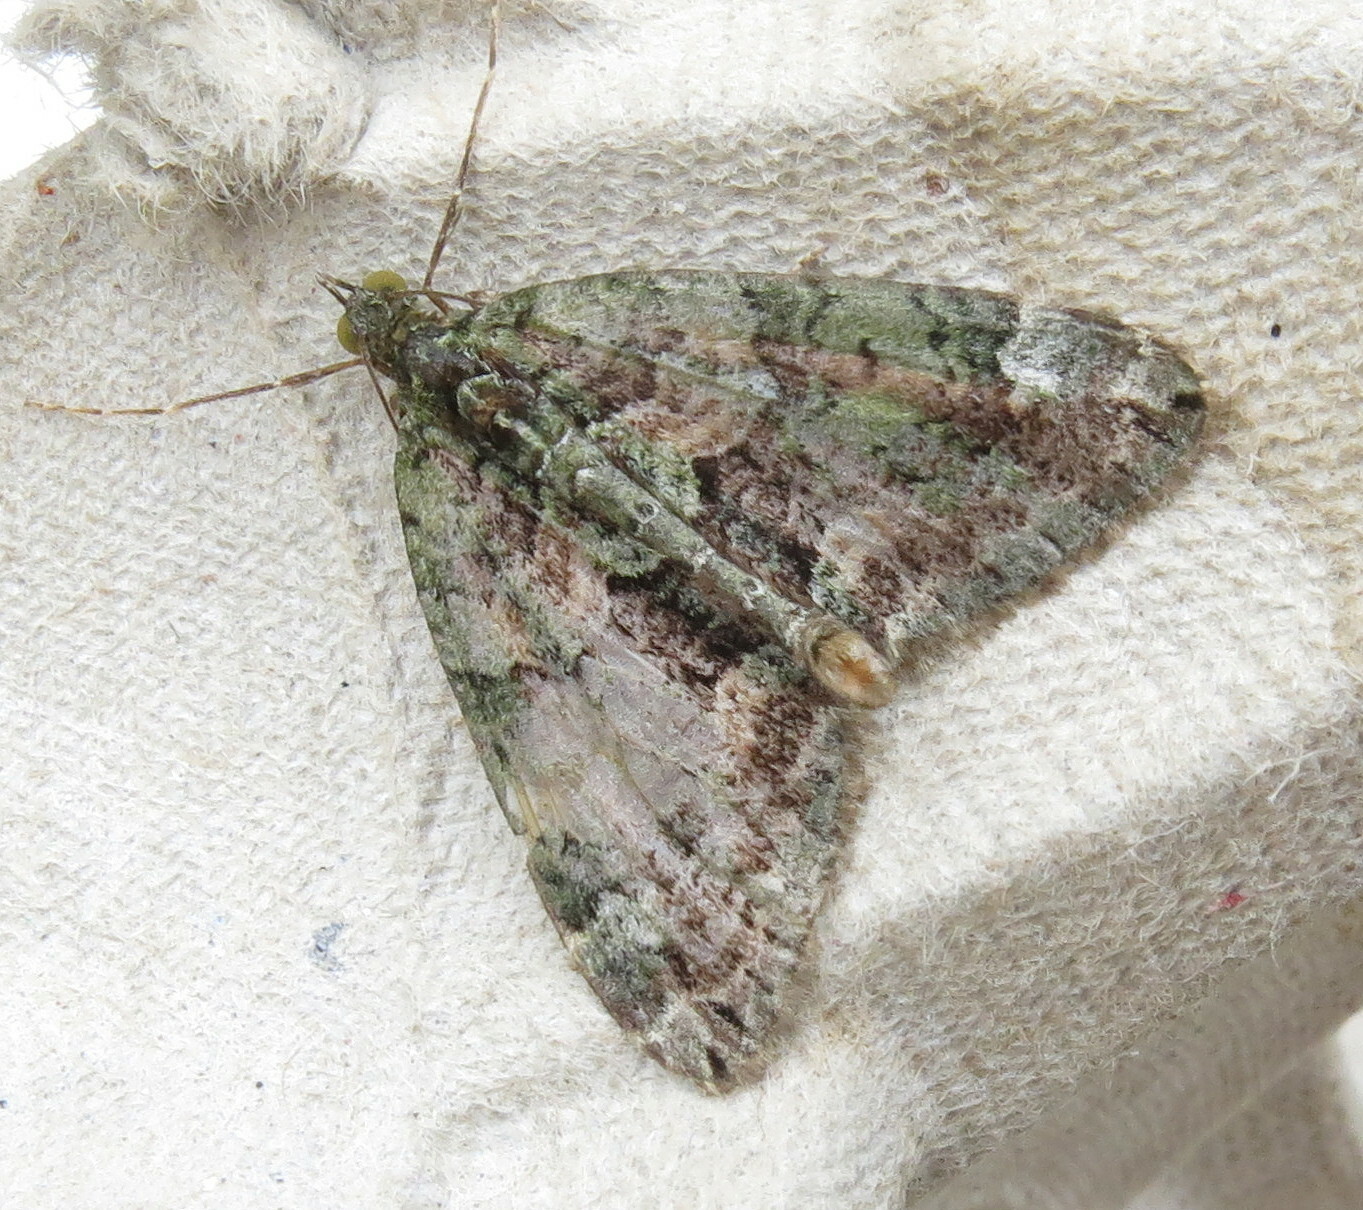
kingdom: Animalia
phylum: Arthropoda
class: Insecta
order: Lepidoptera
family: Geometridae
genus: Chloroclysta
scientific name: Chloroclysta siterata
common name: Red-green carpet
